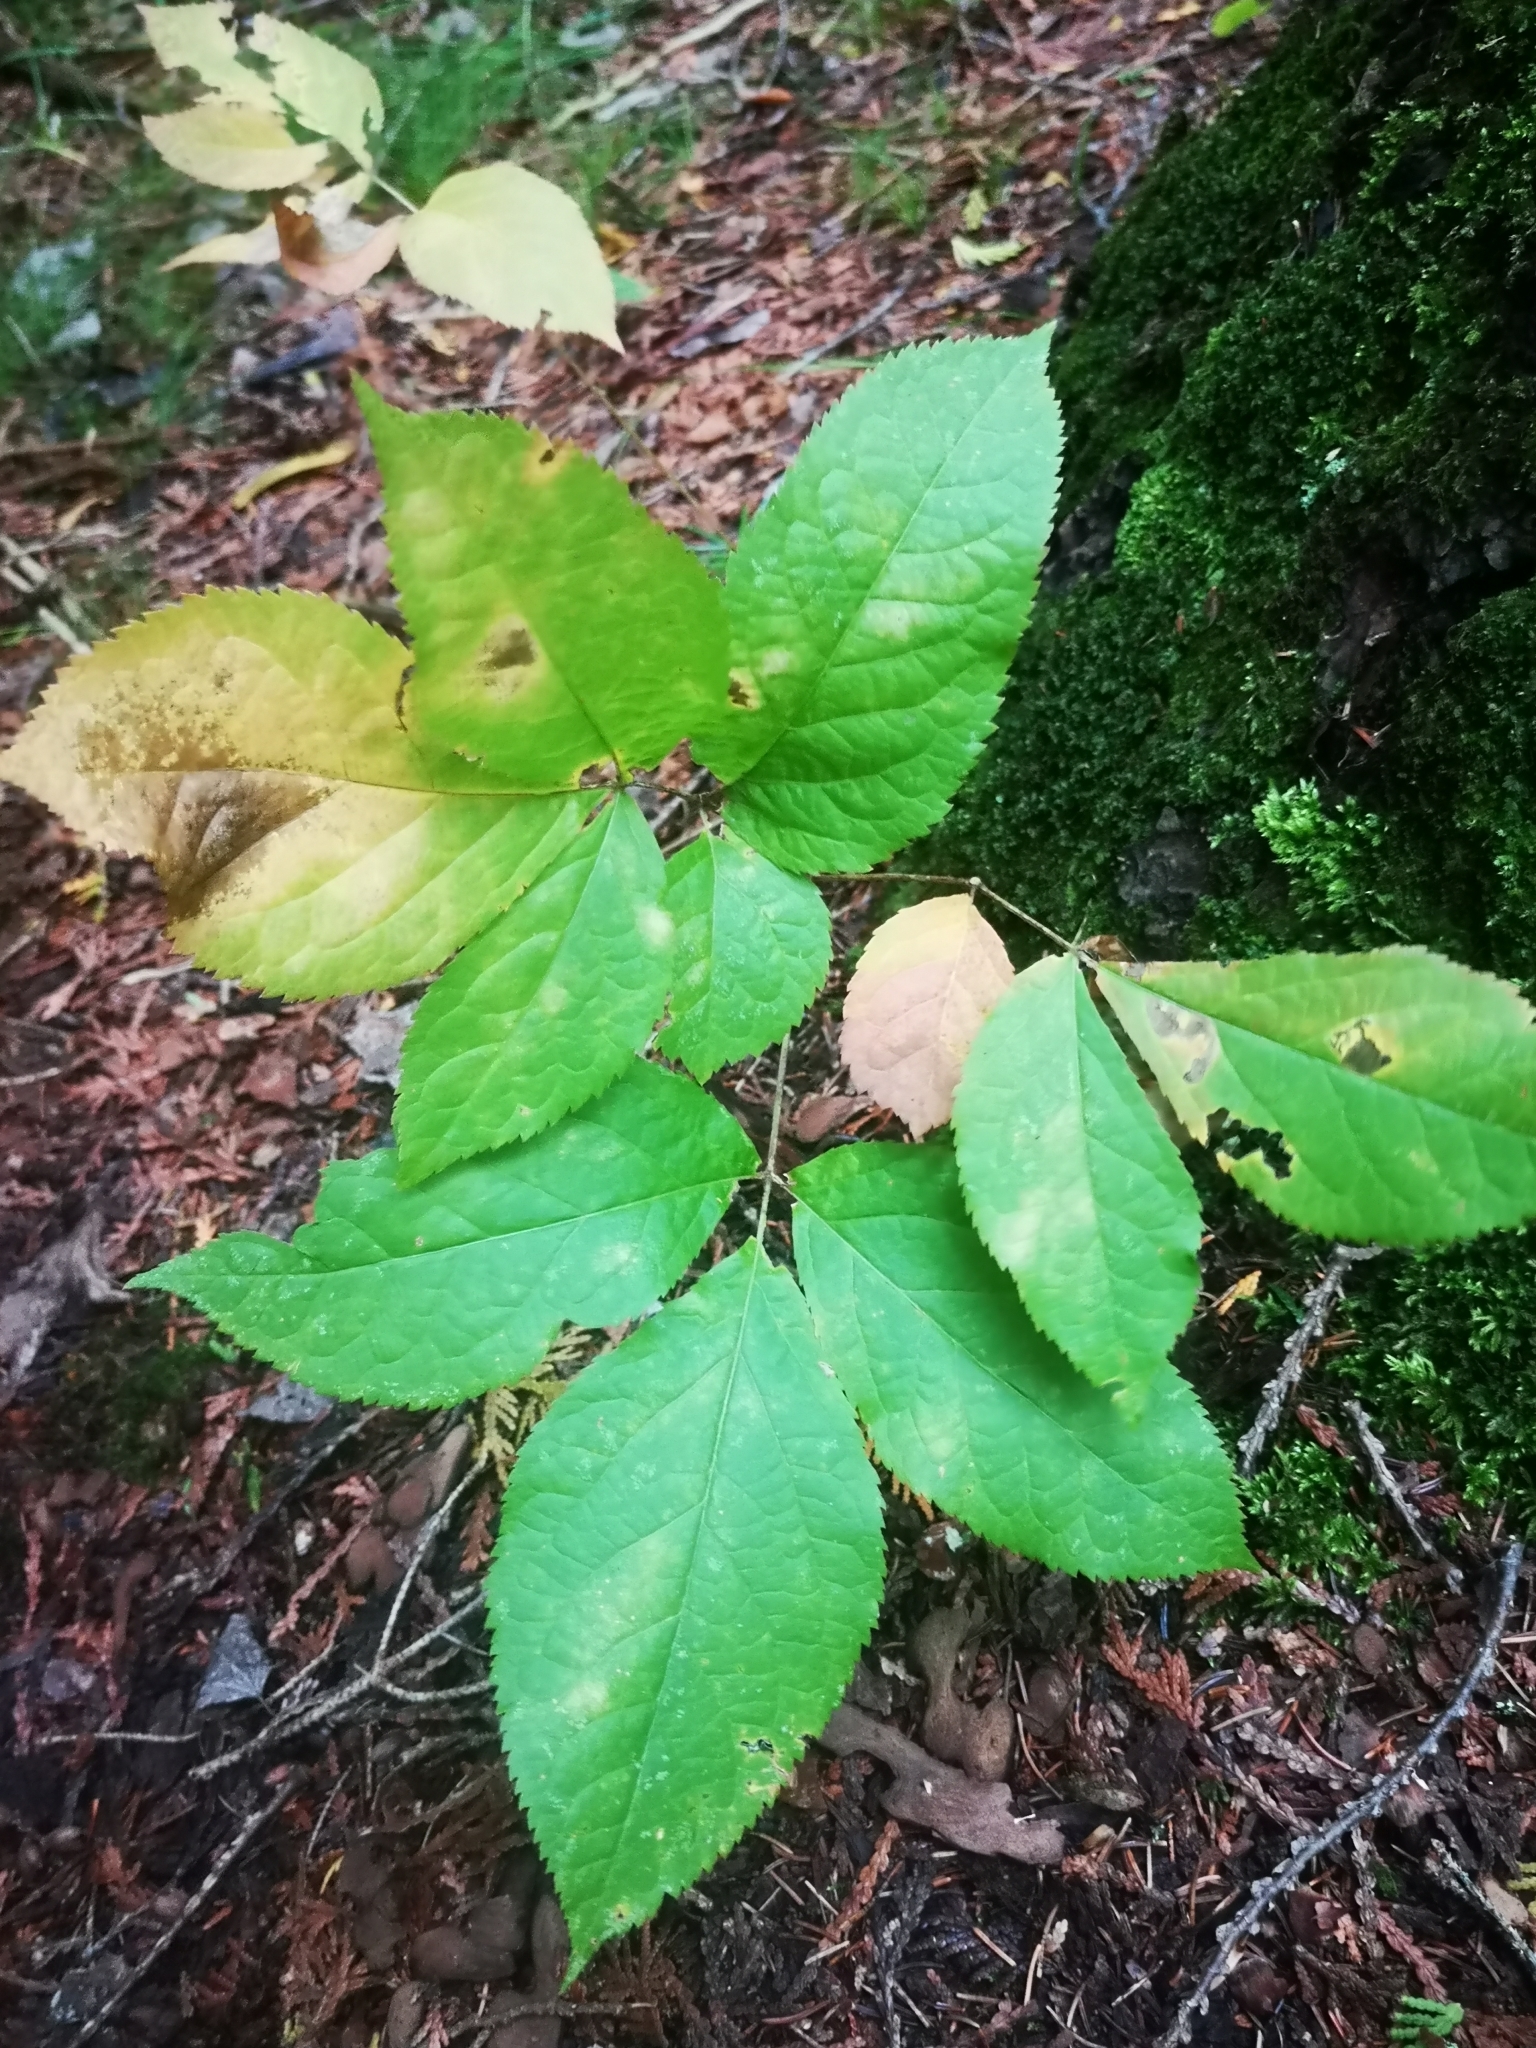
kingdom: Plantae
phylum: Tracheophyta
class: Magnoliopsida
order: Apiales
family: Araliaceae
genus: Aralia
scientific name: Aralia nudicaulis
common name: Wild sarsaparilla
